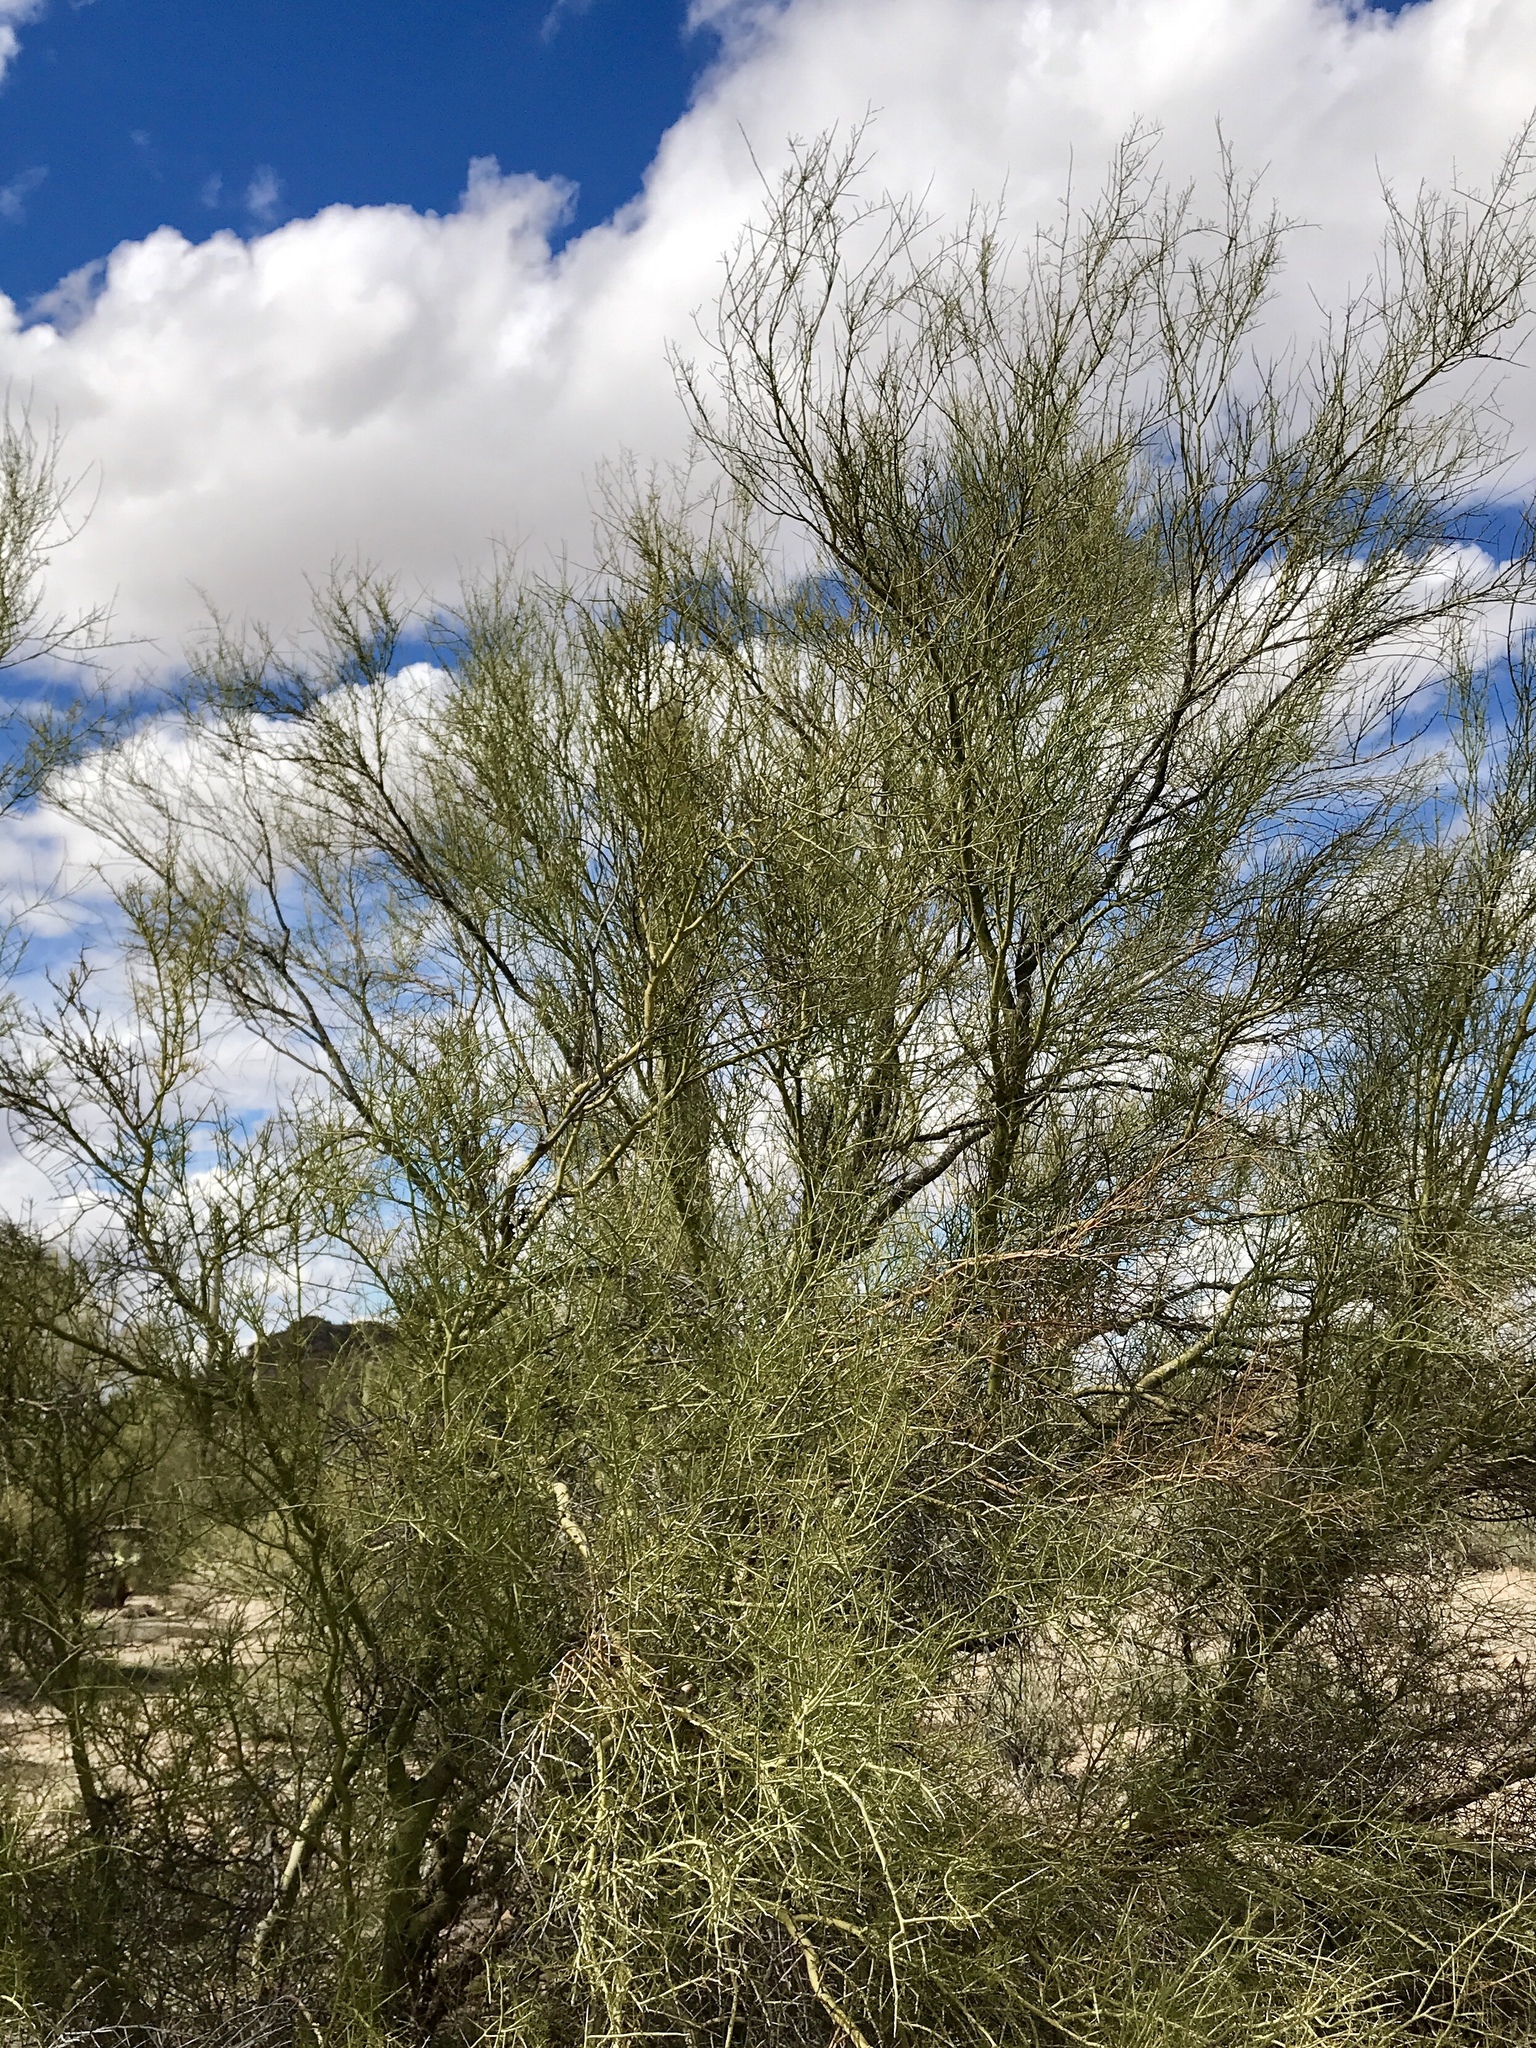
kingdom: Plantae
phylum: Tracheophyta
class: Magnoliopsida
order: Fabales
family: Fabaceae
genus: Parkinsonia
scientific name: Parkinsonia microphylla
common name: Yellow paloverde
